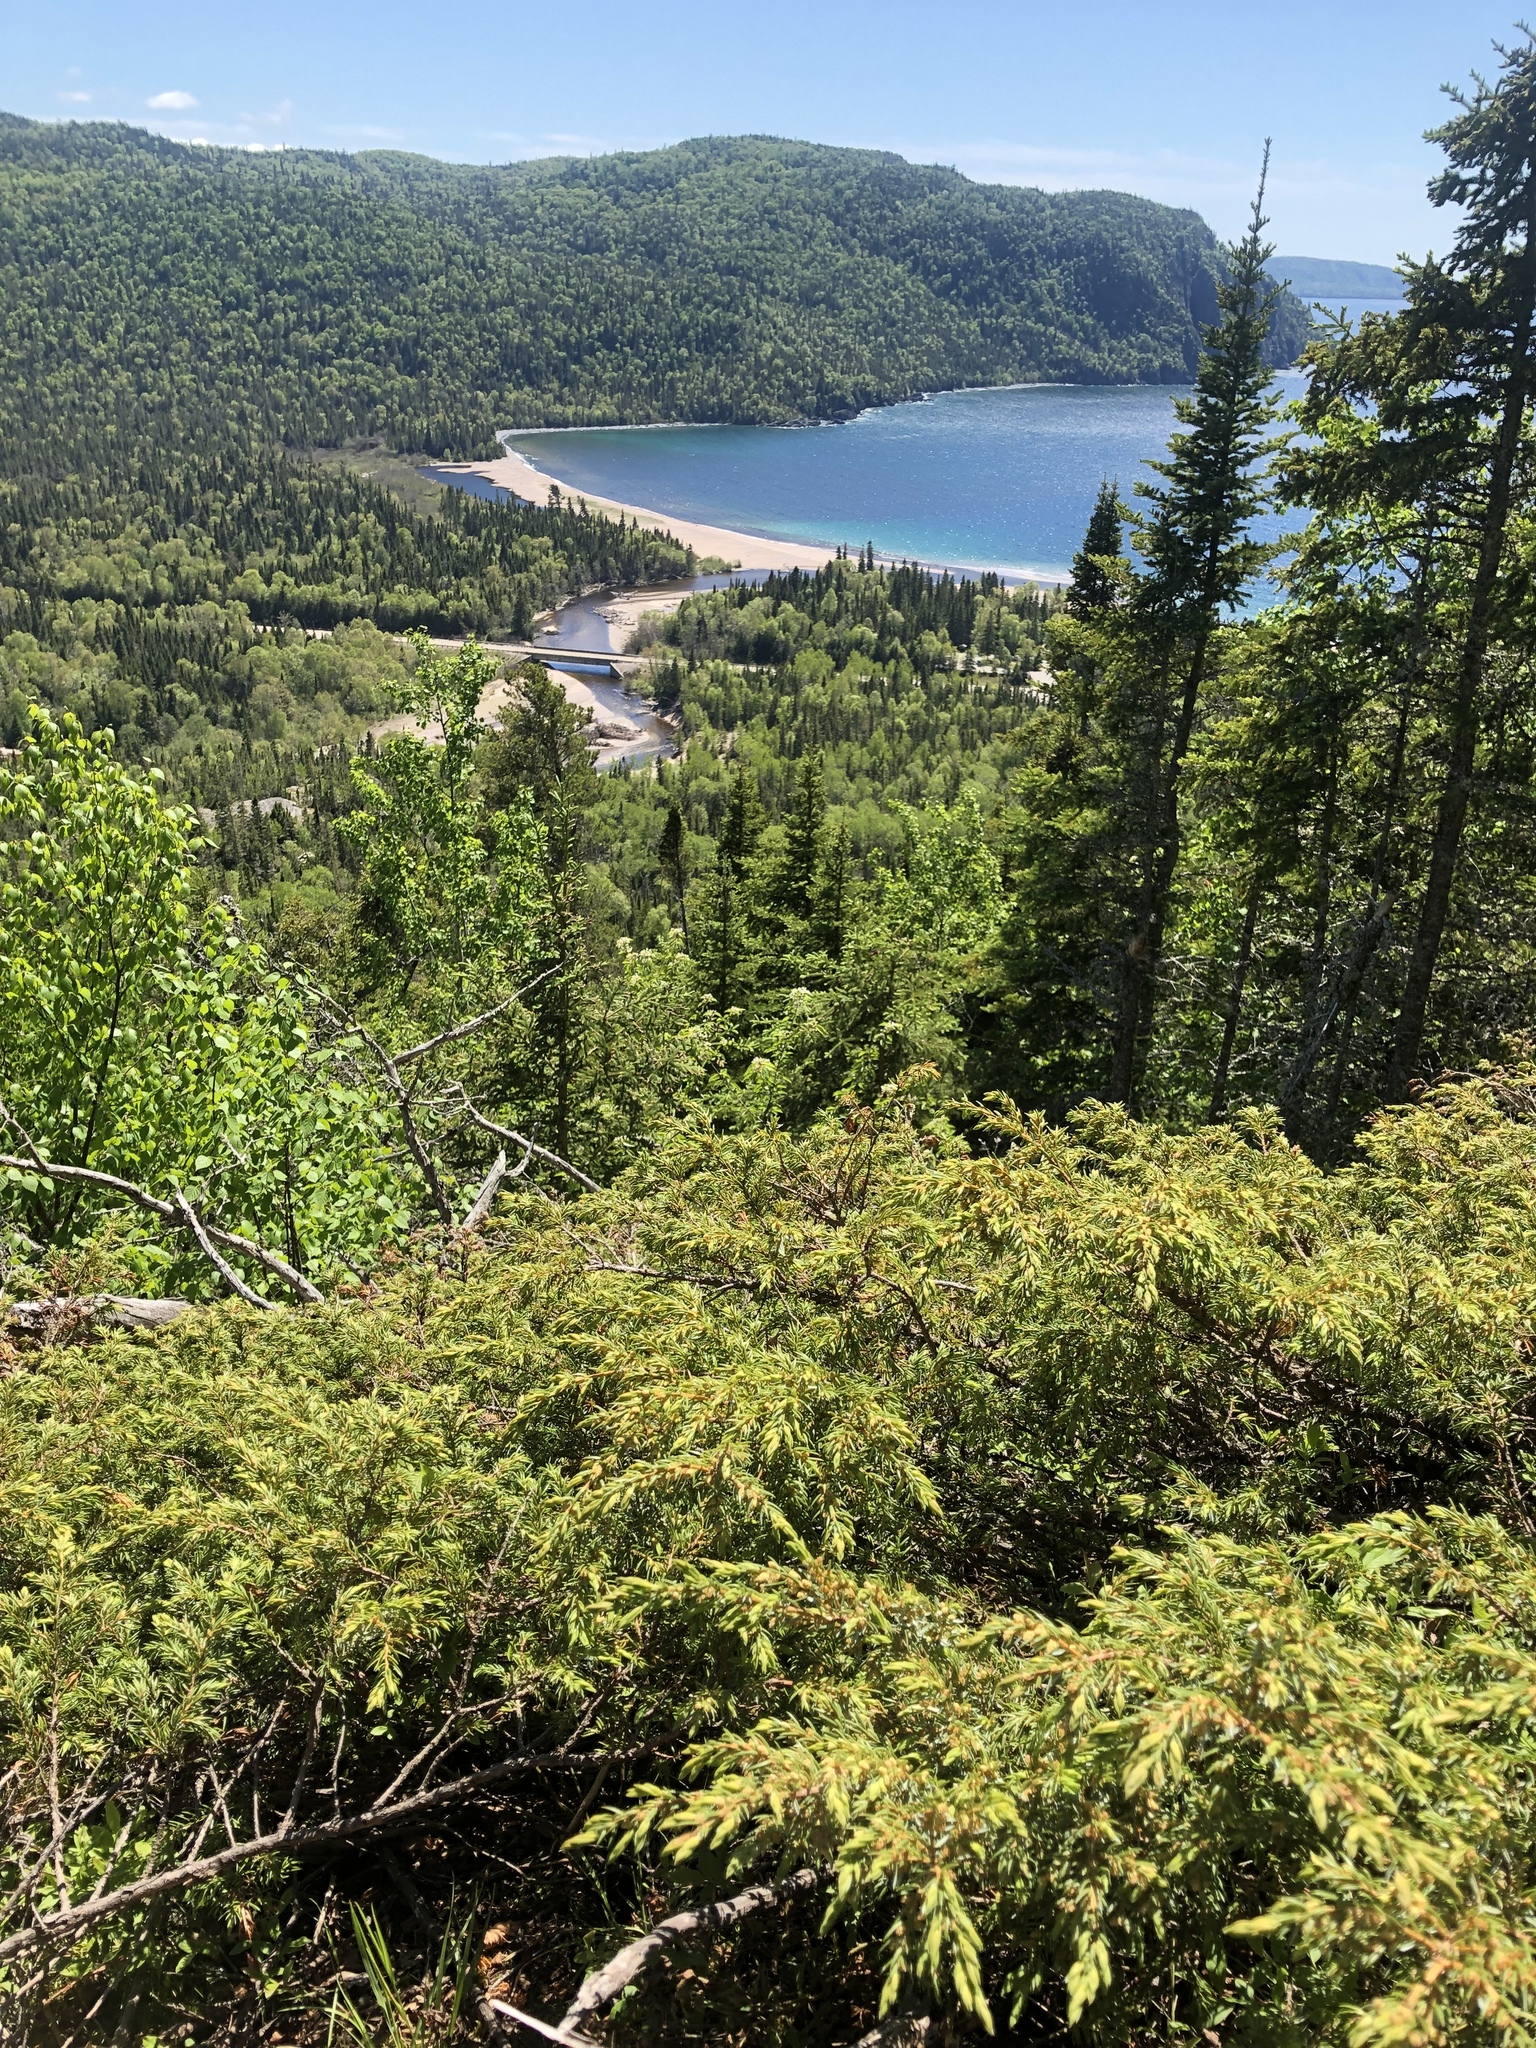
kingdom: Plantae
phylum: Tracheophyta
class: Pinopsida
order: Pinales
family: Cupressaceae
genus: Juniperus
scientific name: Juniperus communis
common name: Common juniper
